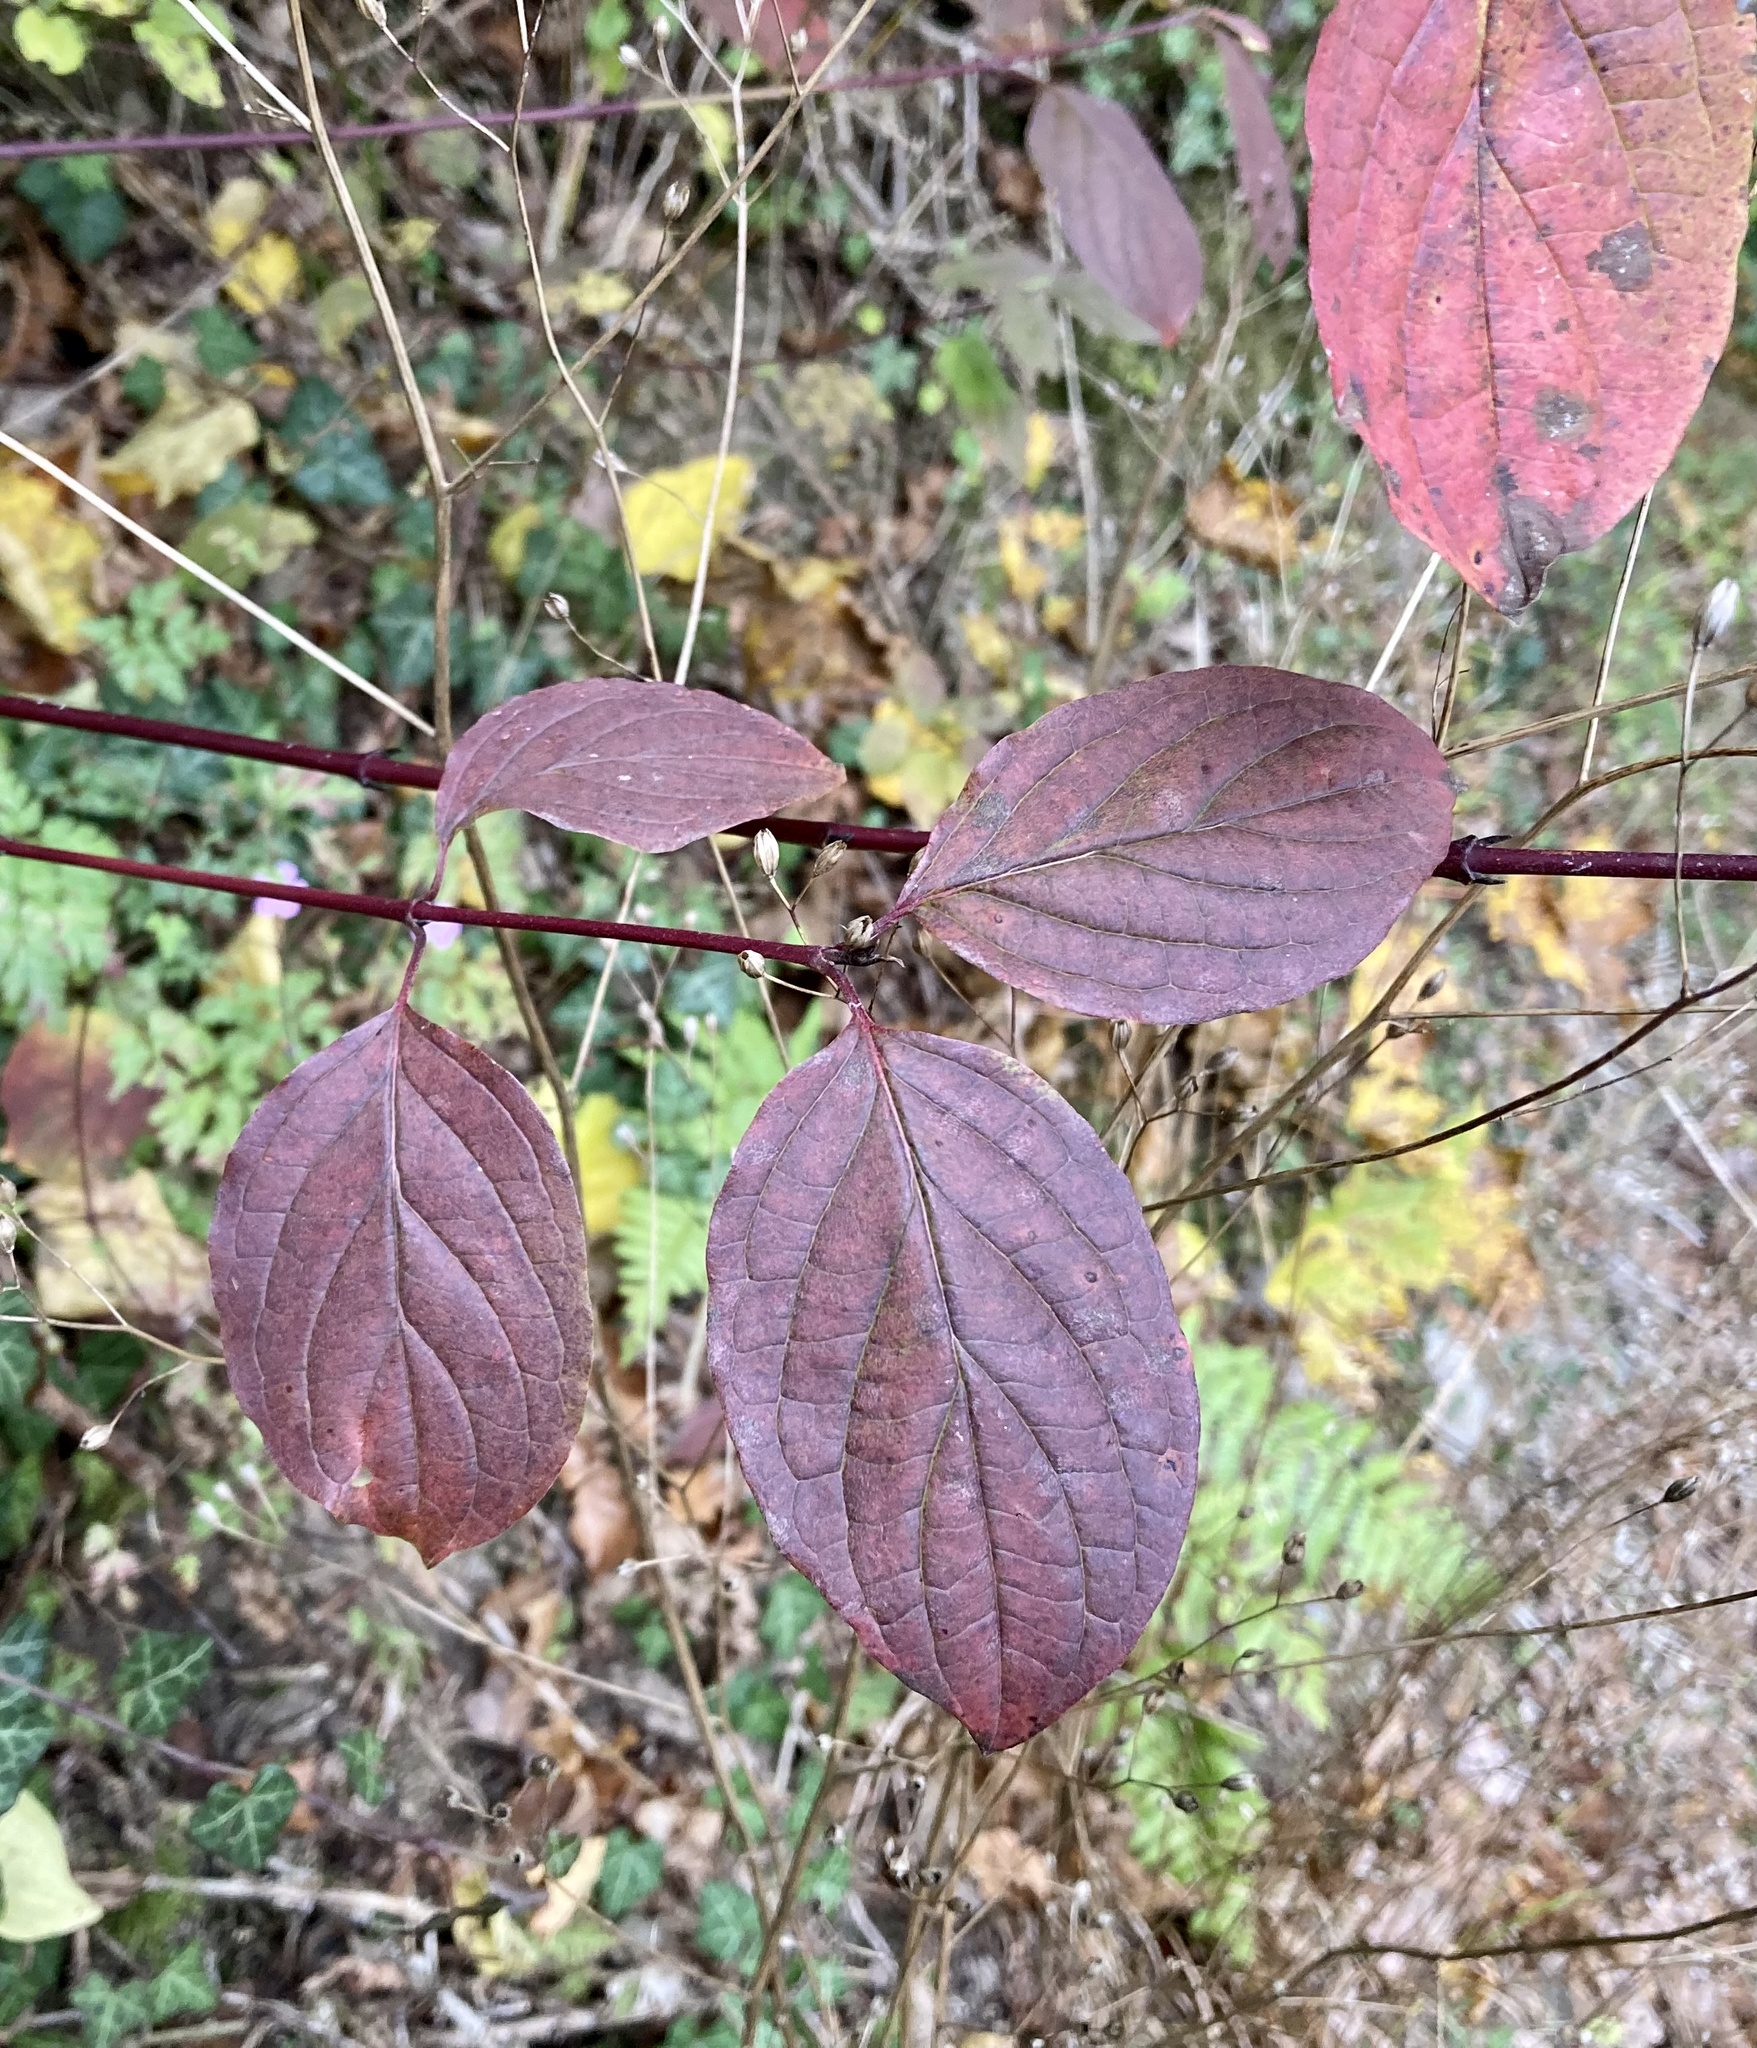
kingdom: Plantae
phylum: Tracheophyta
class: Magnoliopsida
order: Cornales
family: Cornaceae
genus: Cornus
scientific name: Cornus sanguinea
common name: Dogwood
